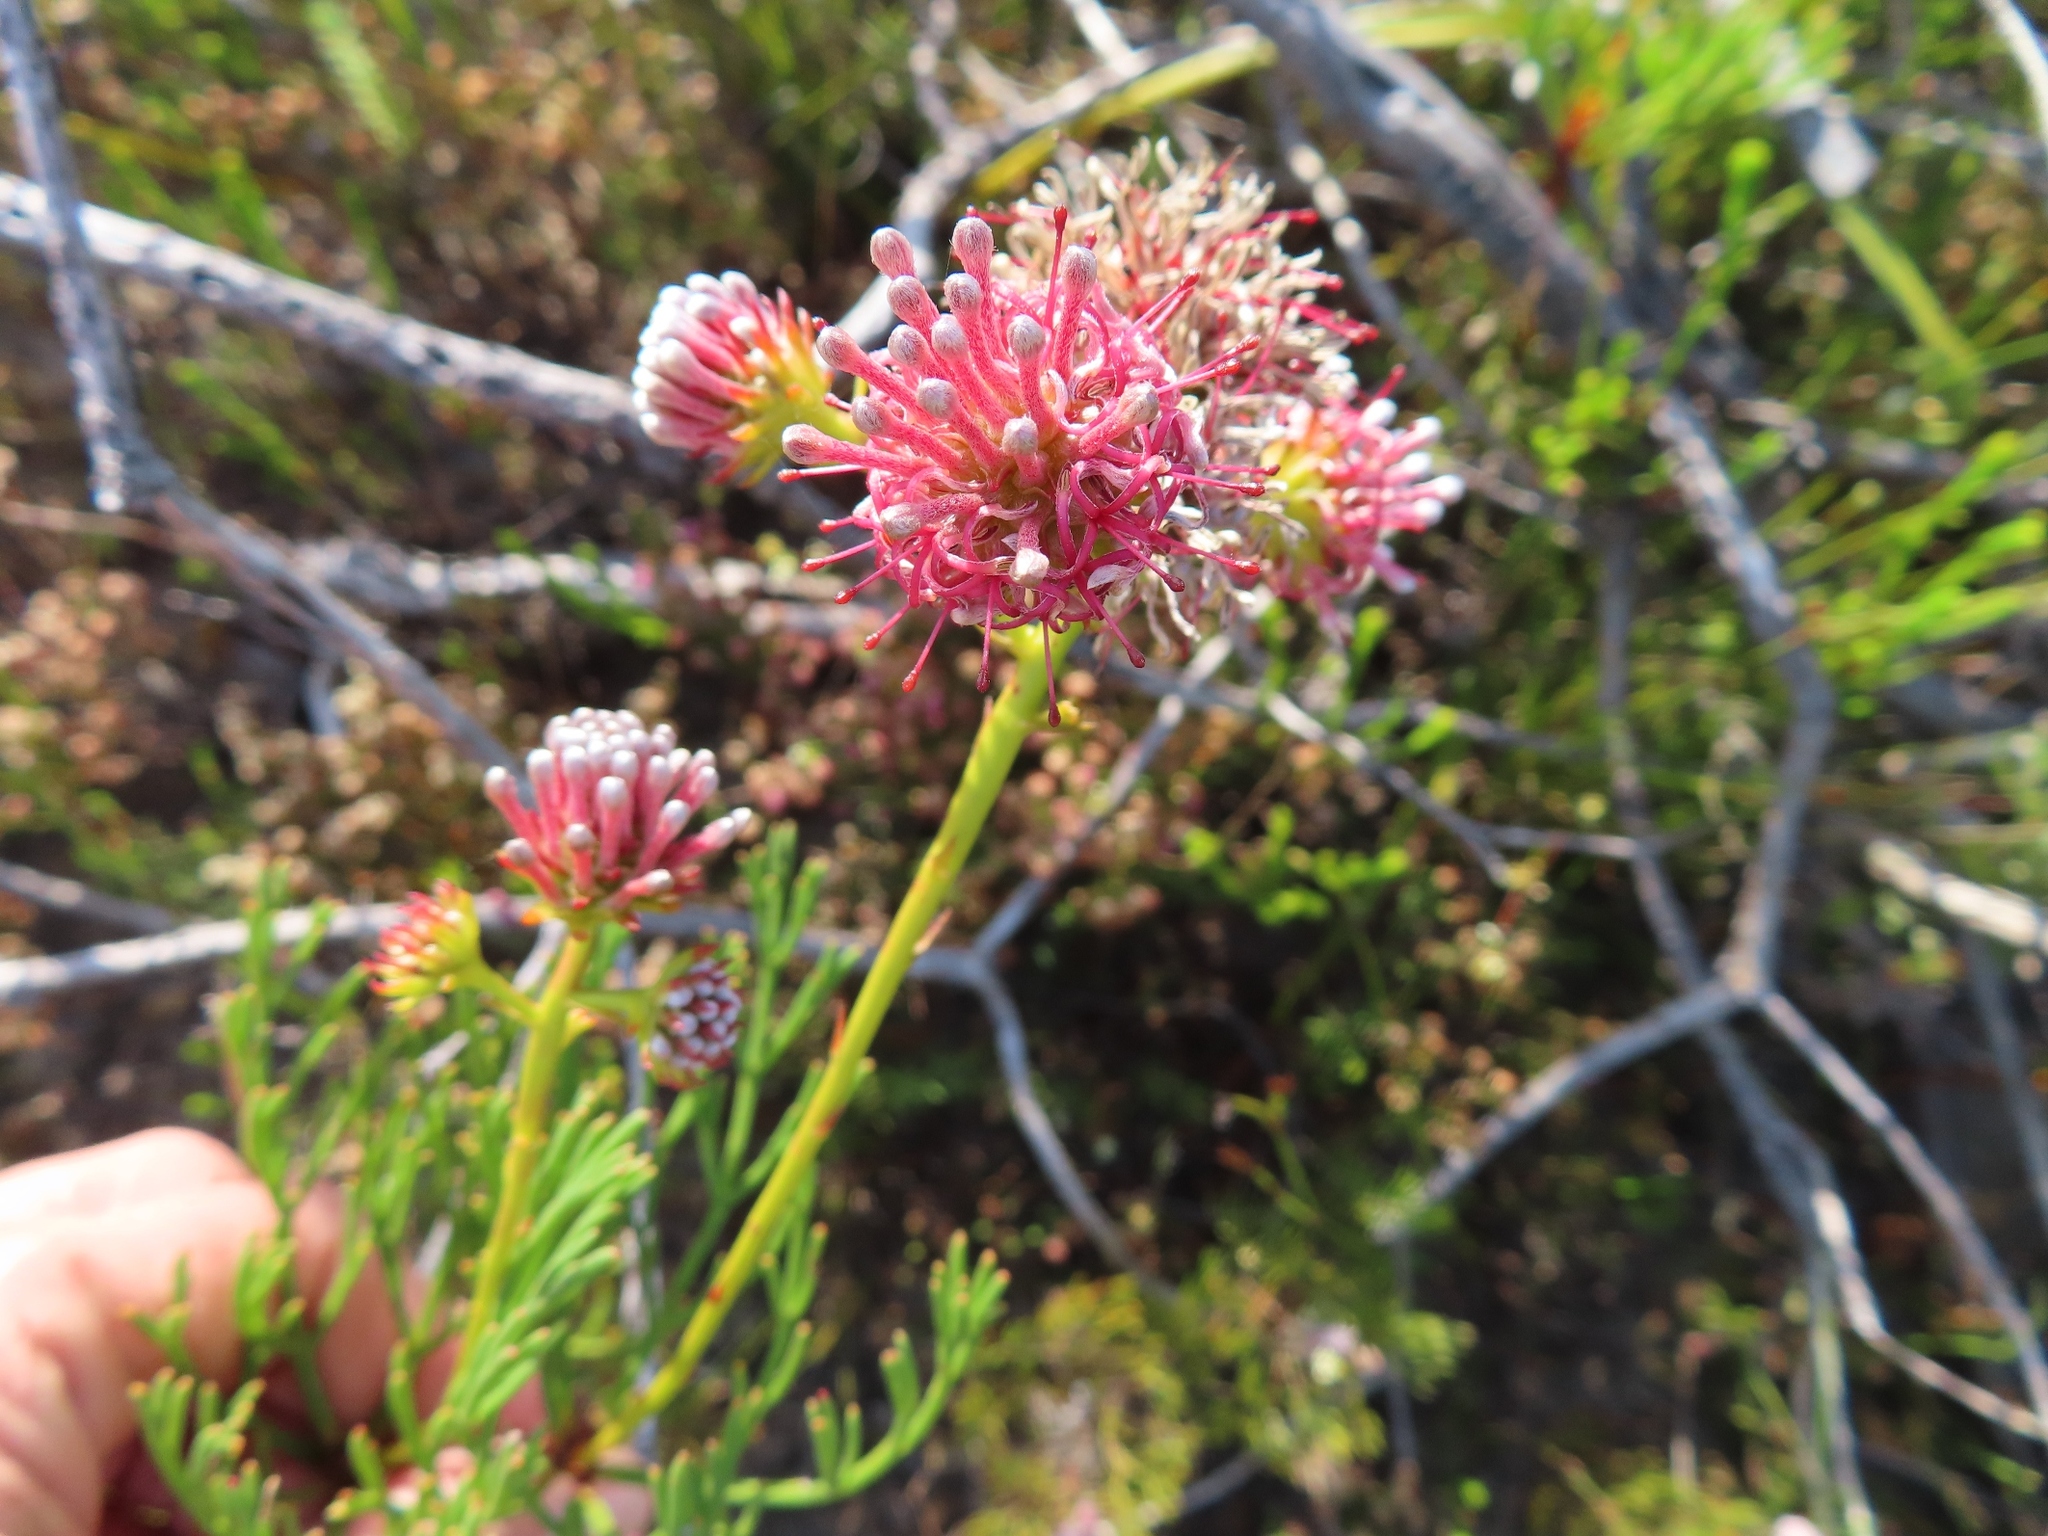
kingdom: Plantae
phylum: Tracheophyta
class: Magnoliopsida
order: Proteales
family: Proteaceae
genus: Serruria
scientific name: Serruria elongata
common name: Long-stalk spiderhead
